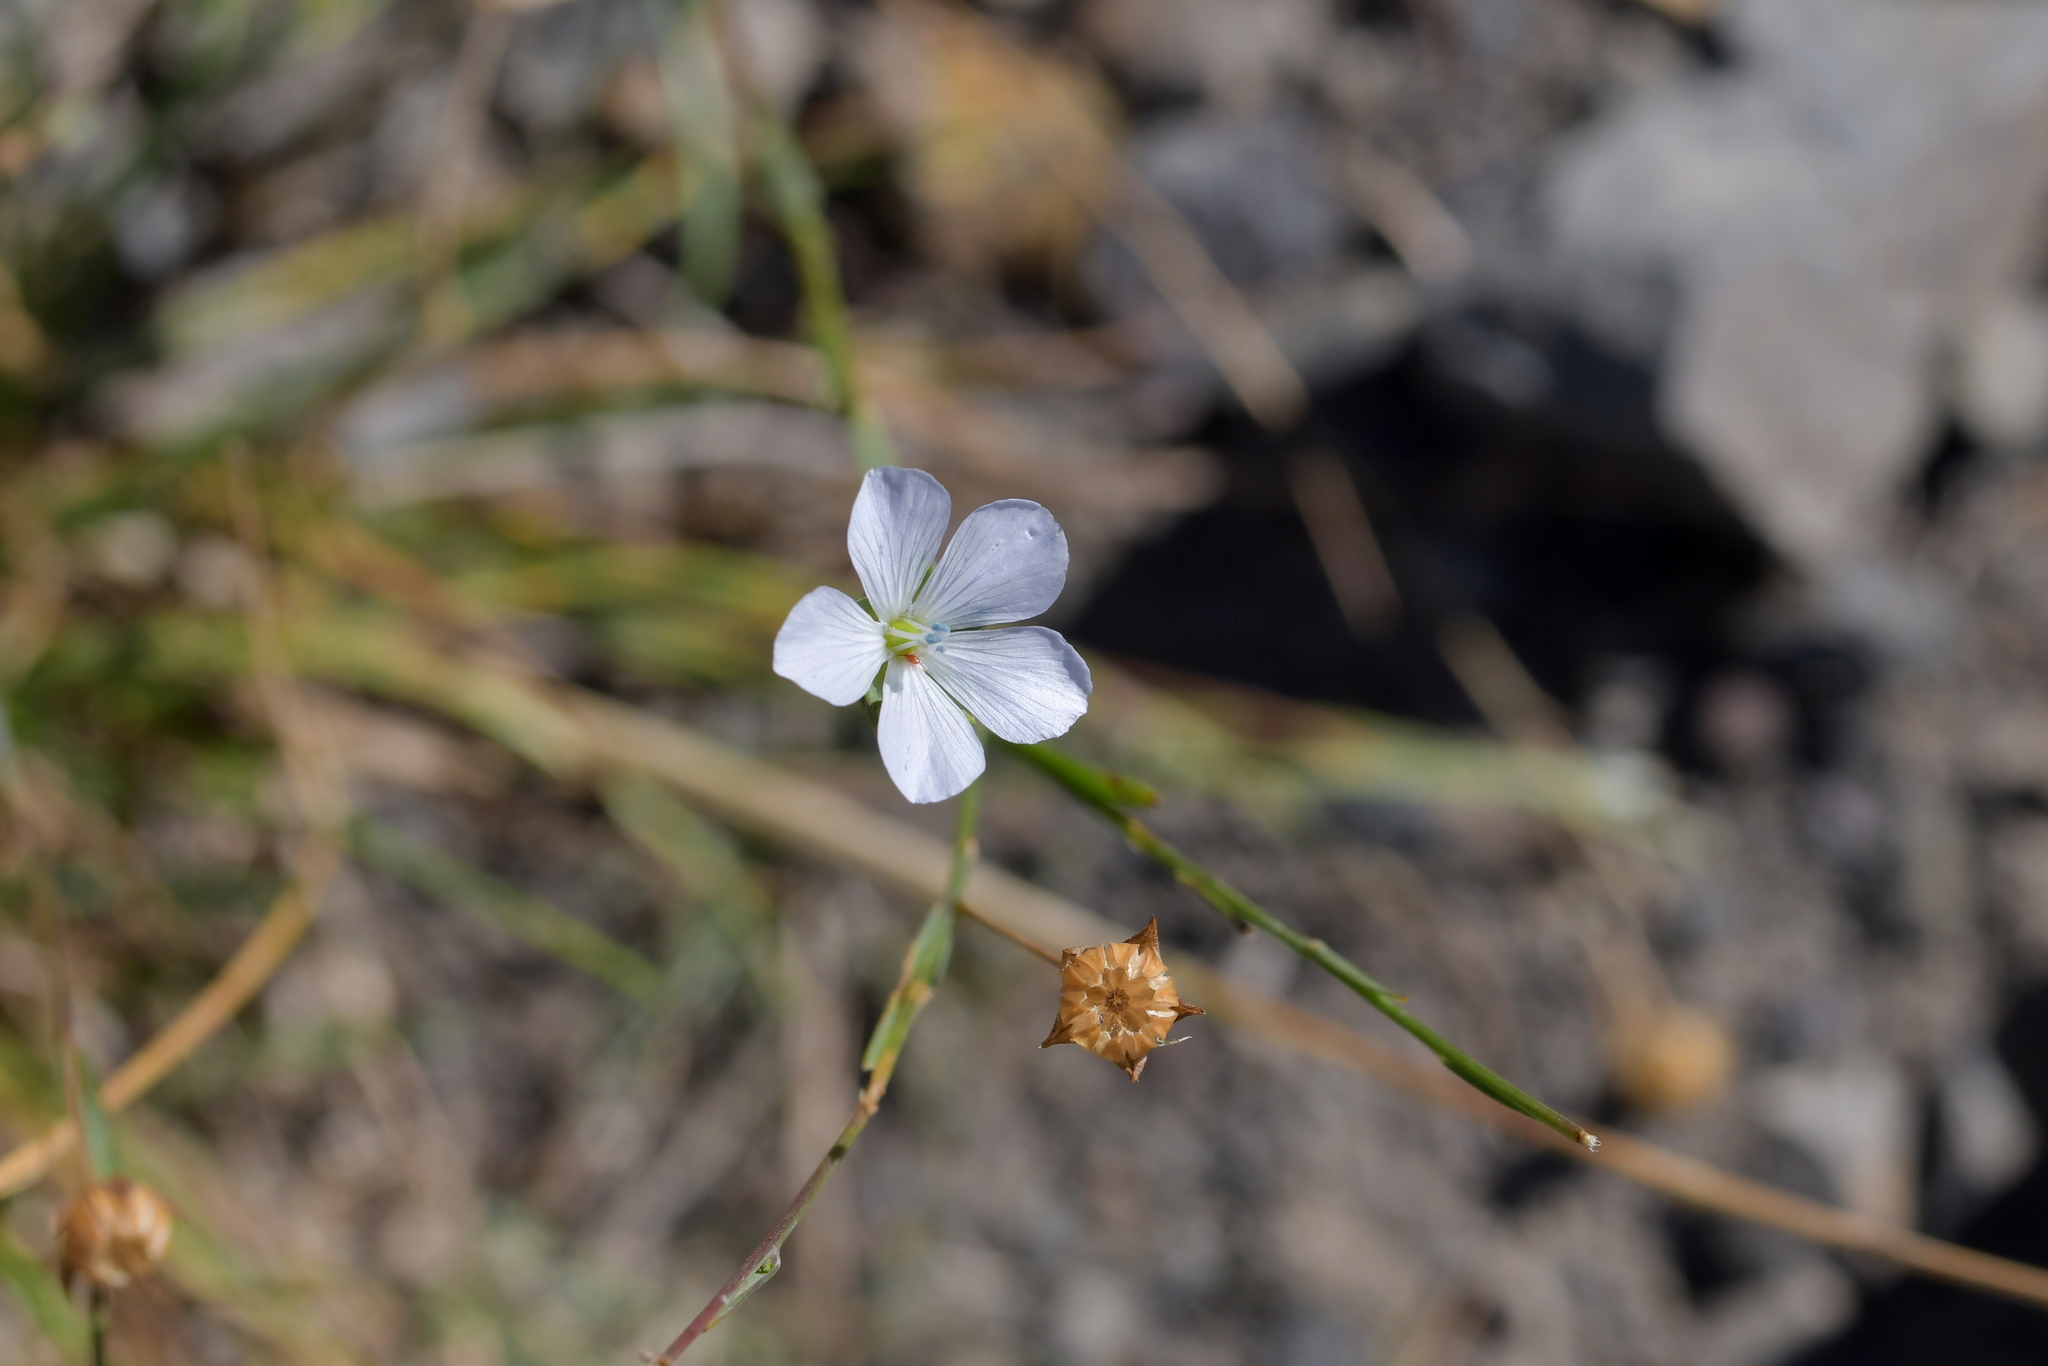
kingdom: Plantae
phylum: Tracheophyta
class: Magnoliopsida
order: Malpighiales
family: Linaceae
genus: Linum
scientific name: Linum bienne
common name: Pale flax
